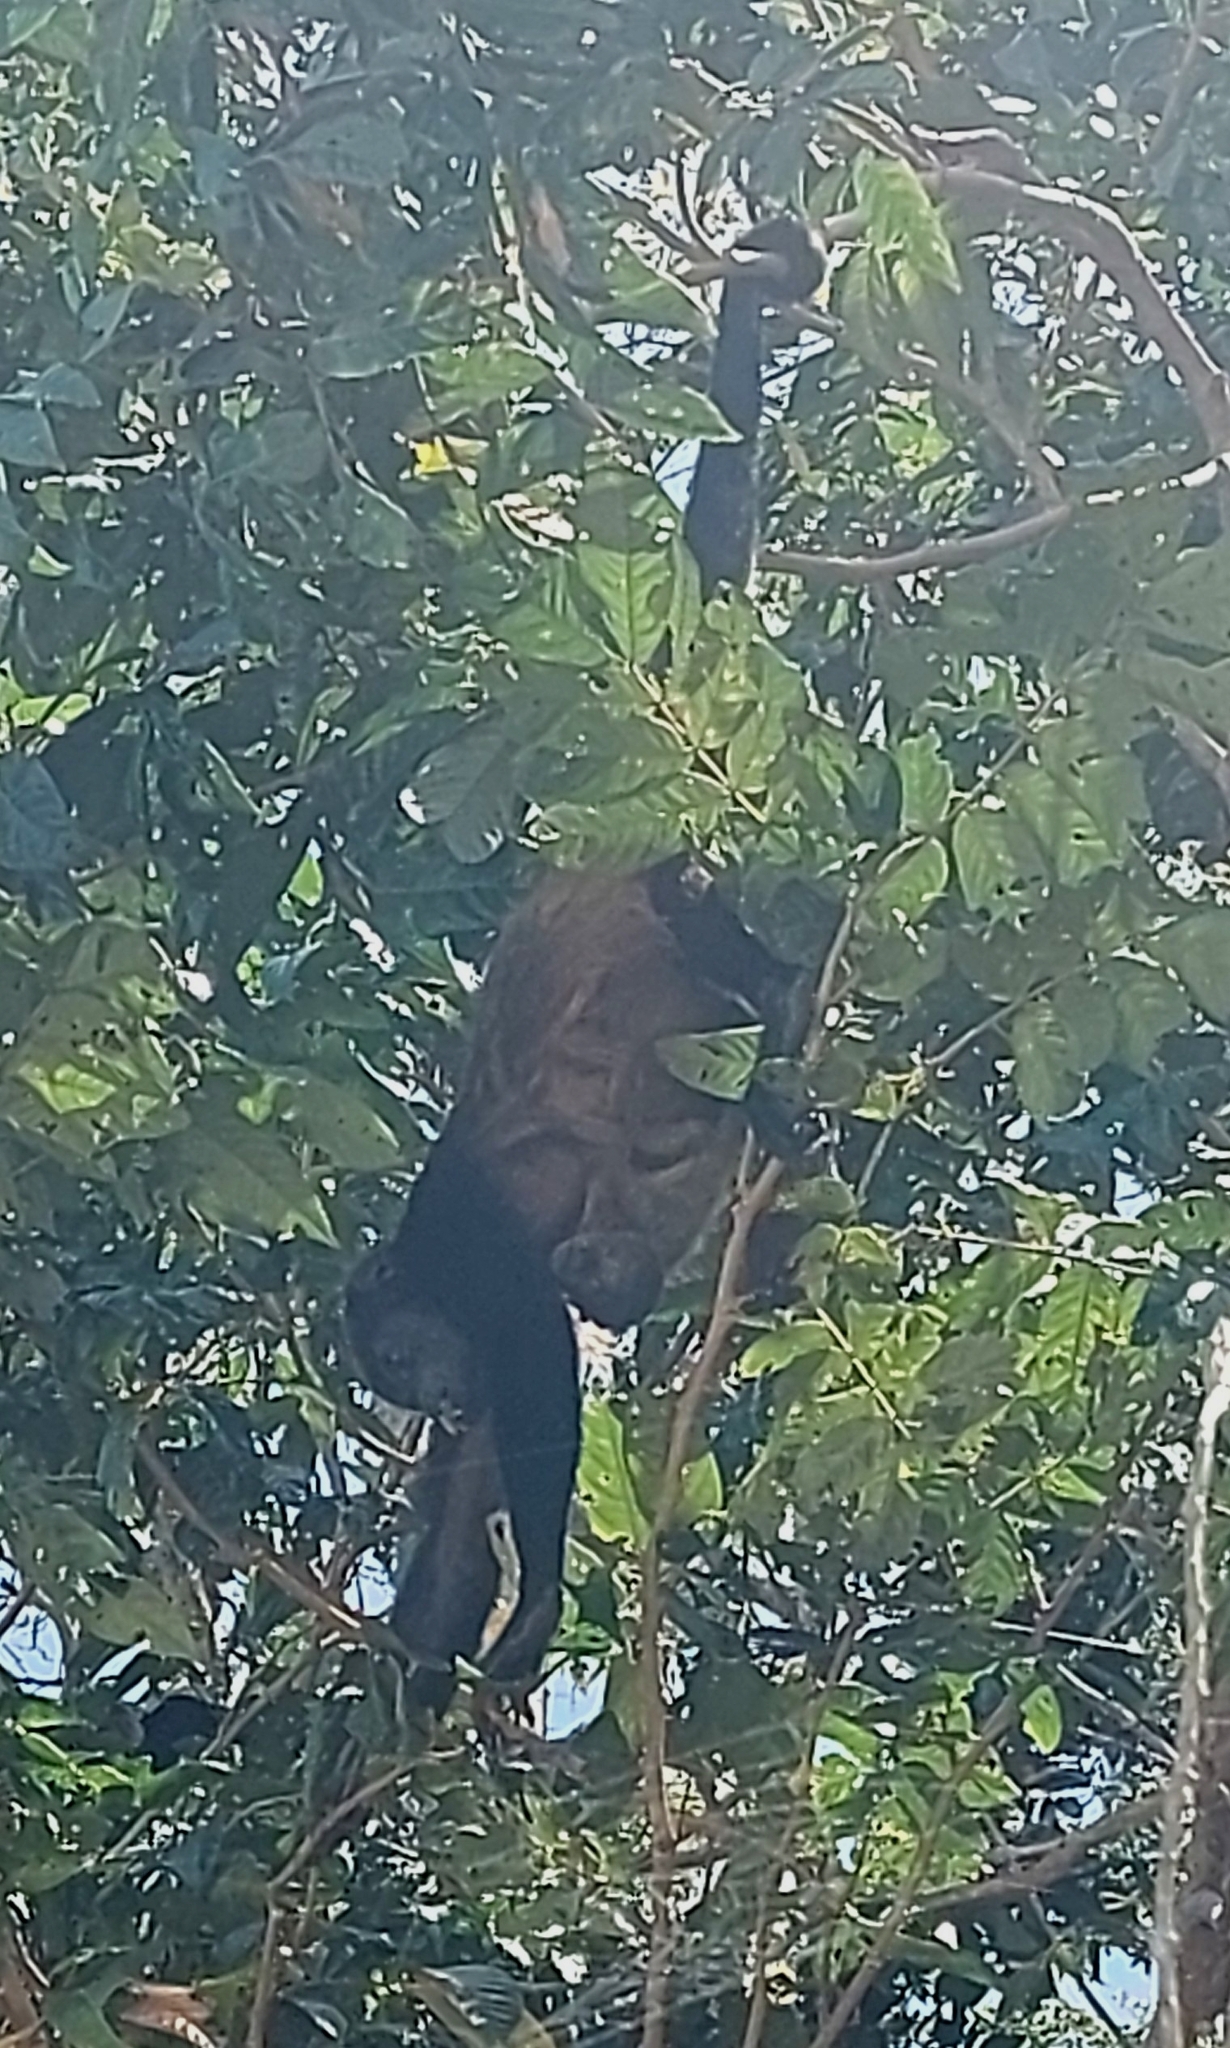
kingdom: Animalia
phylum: Chordata
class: Mammalia
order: Primates
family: Atelidae
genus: Alouatta
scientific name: Alouatta palliata
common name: Mantled howler
